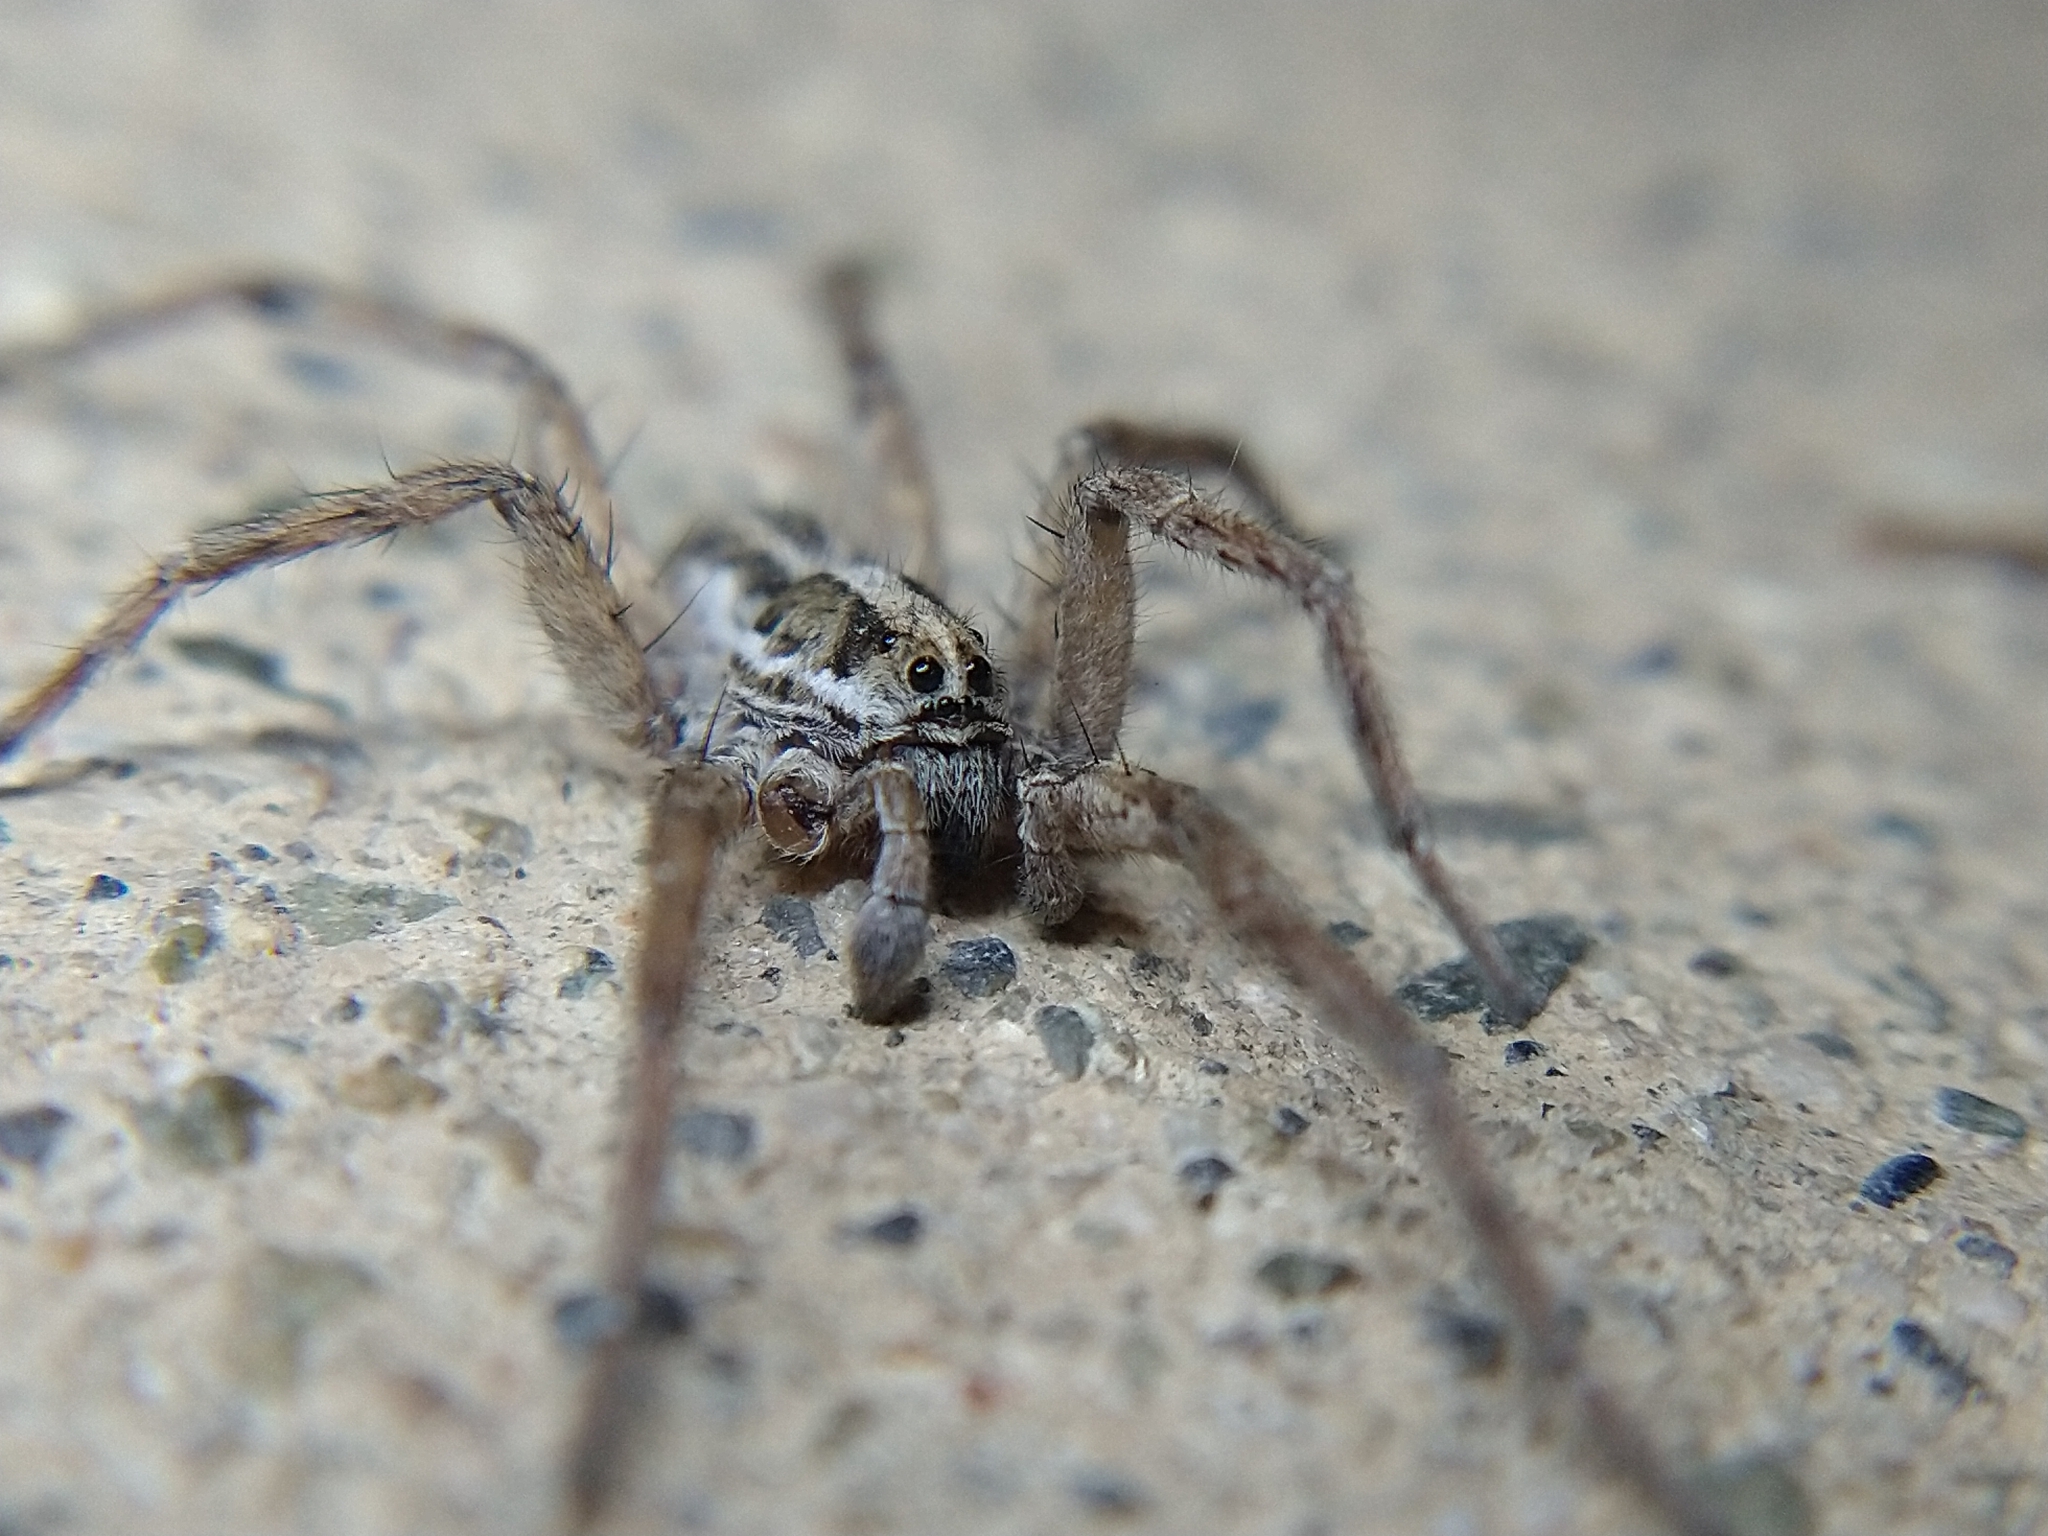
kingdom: Animalia
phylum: Arthropoda
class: Arachnida
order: Araneae
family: Lycosidae
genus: Schizocosa
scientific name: Schizocosa mccooki
